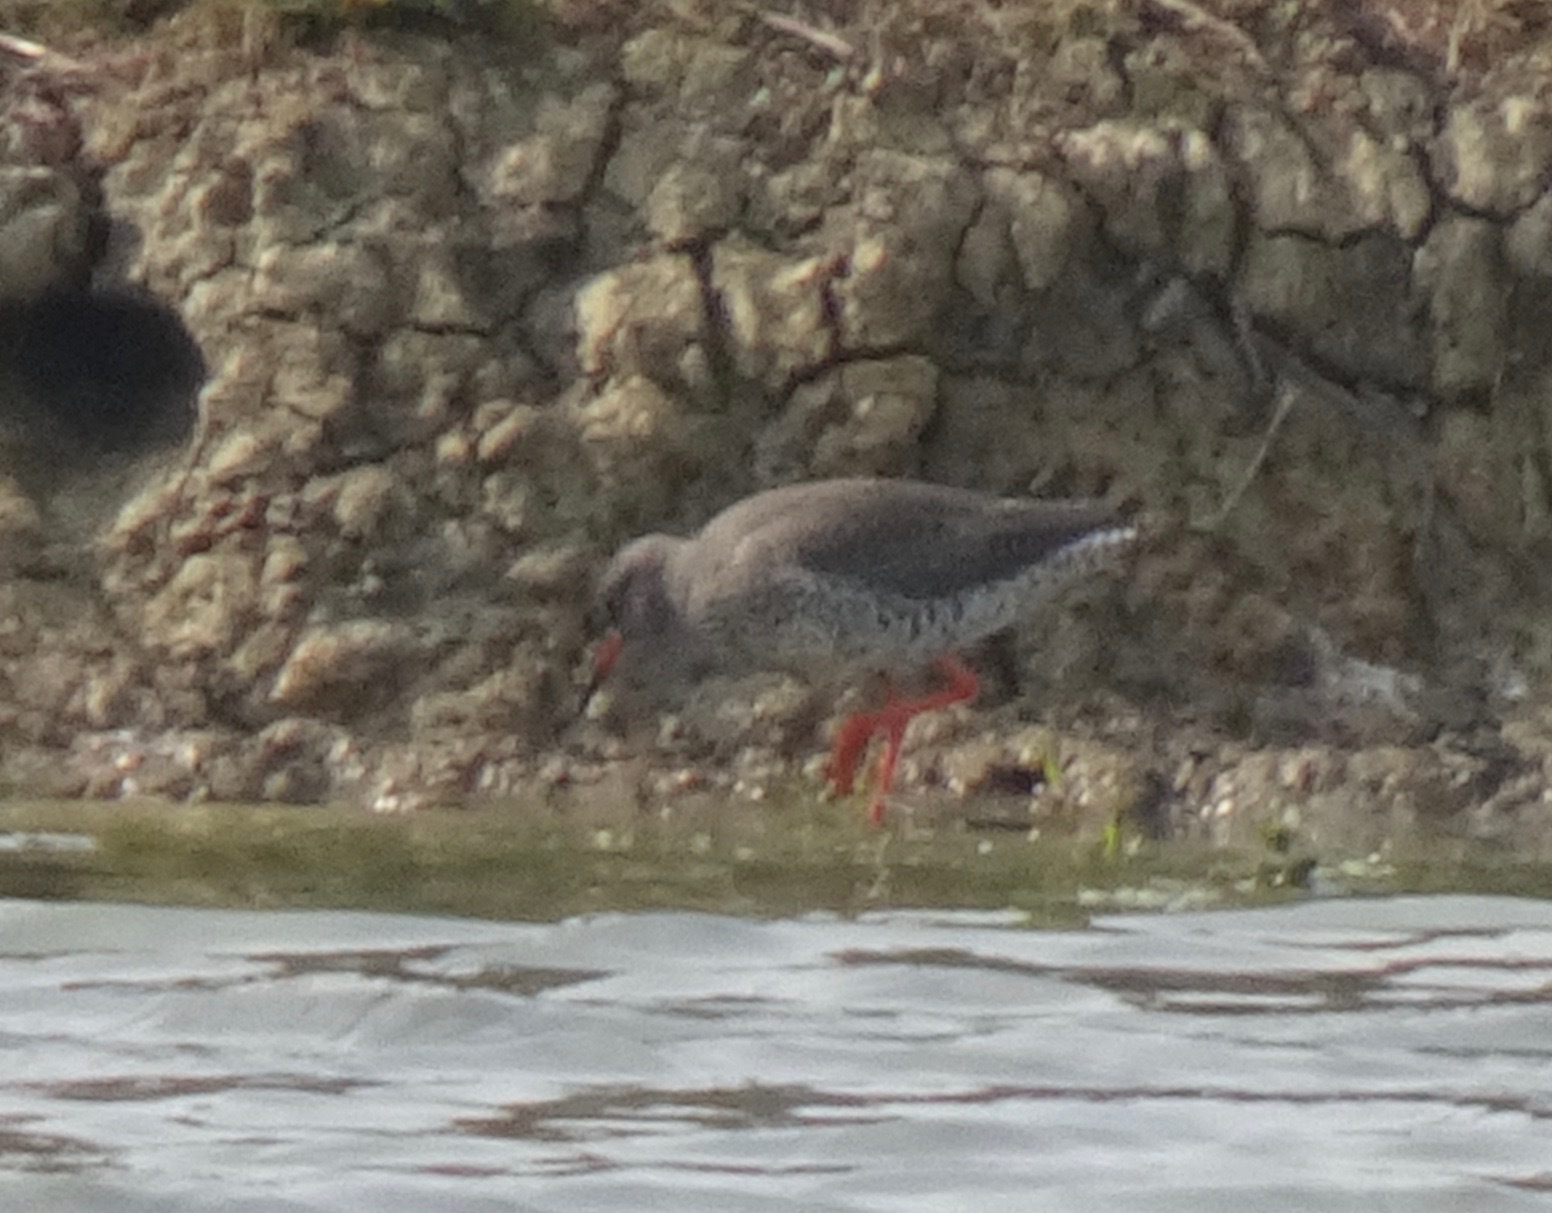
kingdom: Animalia
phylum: Chordata
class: Aves
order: Charadriiformes
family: Scolopacidae
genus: Tringa
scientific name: Tringa totanus
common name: Common redshank
